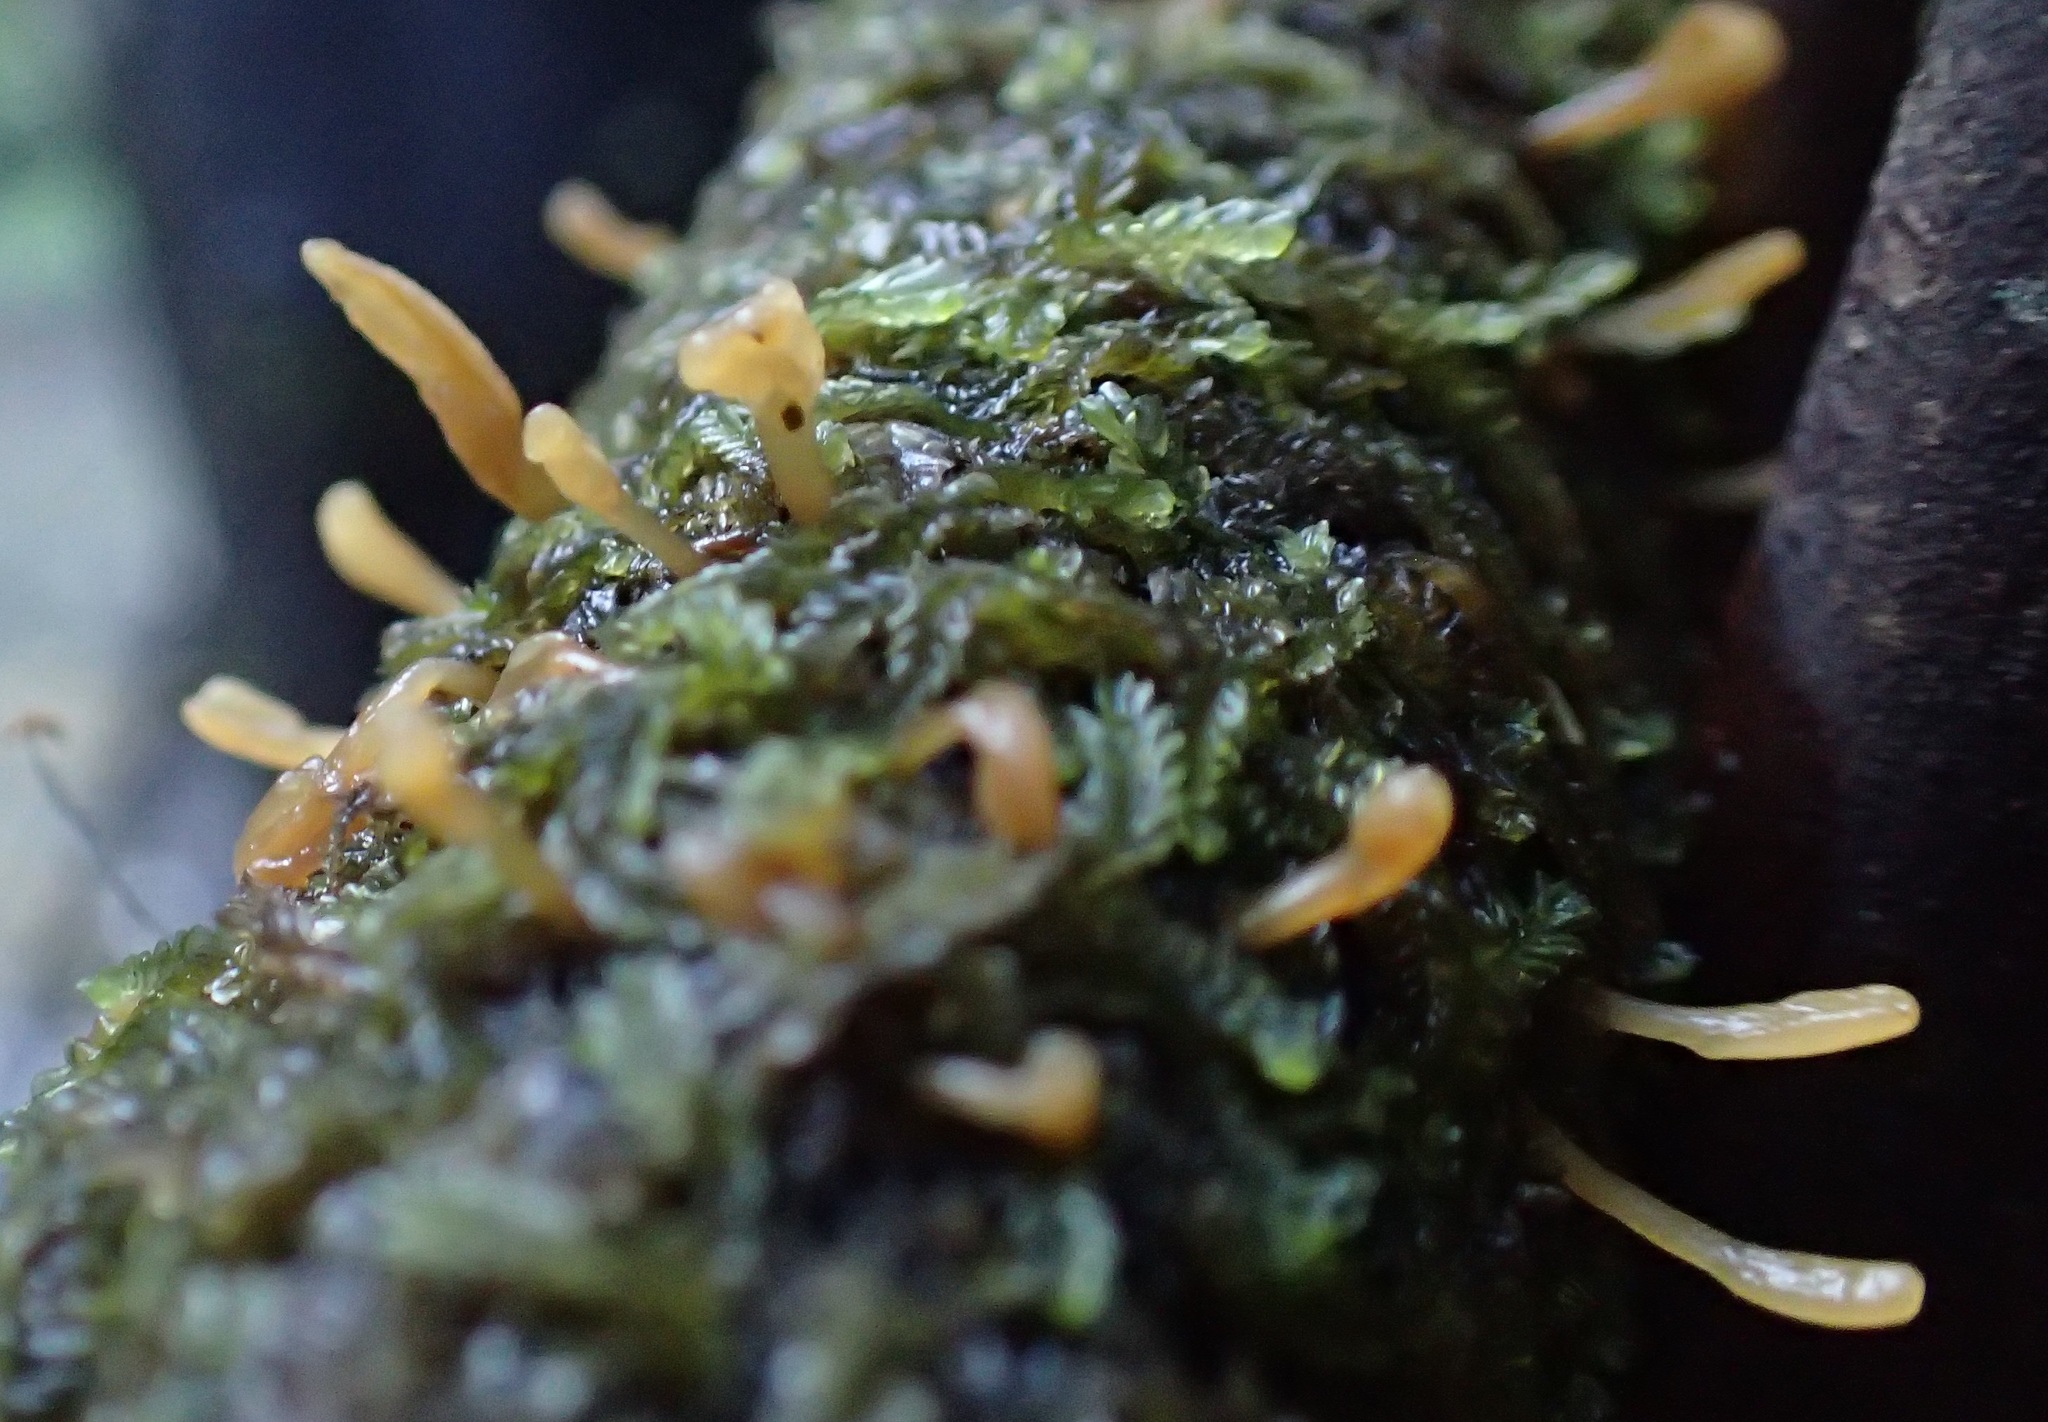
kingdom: Fungi
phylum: Basidiomycota
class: Dacrymycetes
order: Dacrymycetales
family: Dacrymycetaceae
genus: Calocera
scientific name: Calocera guepinioides
